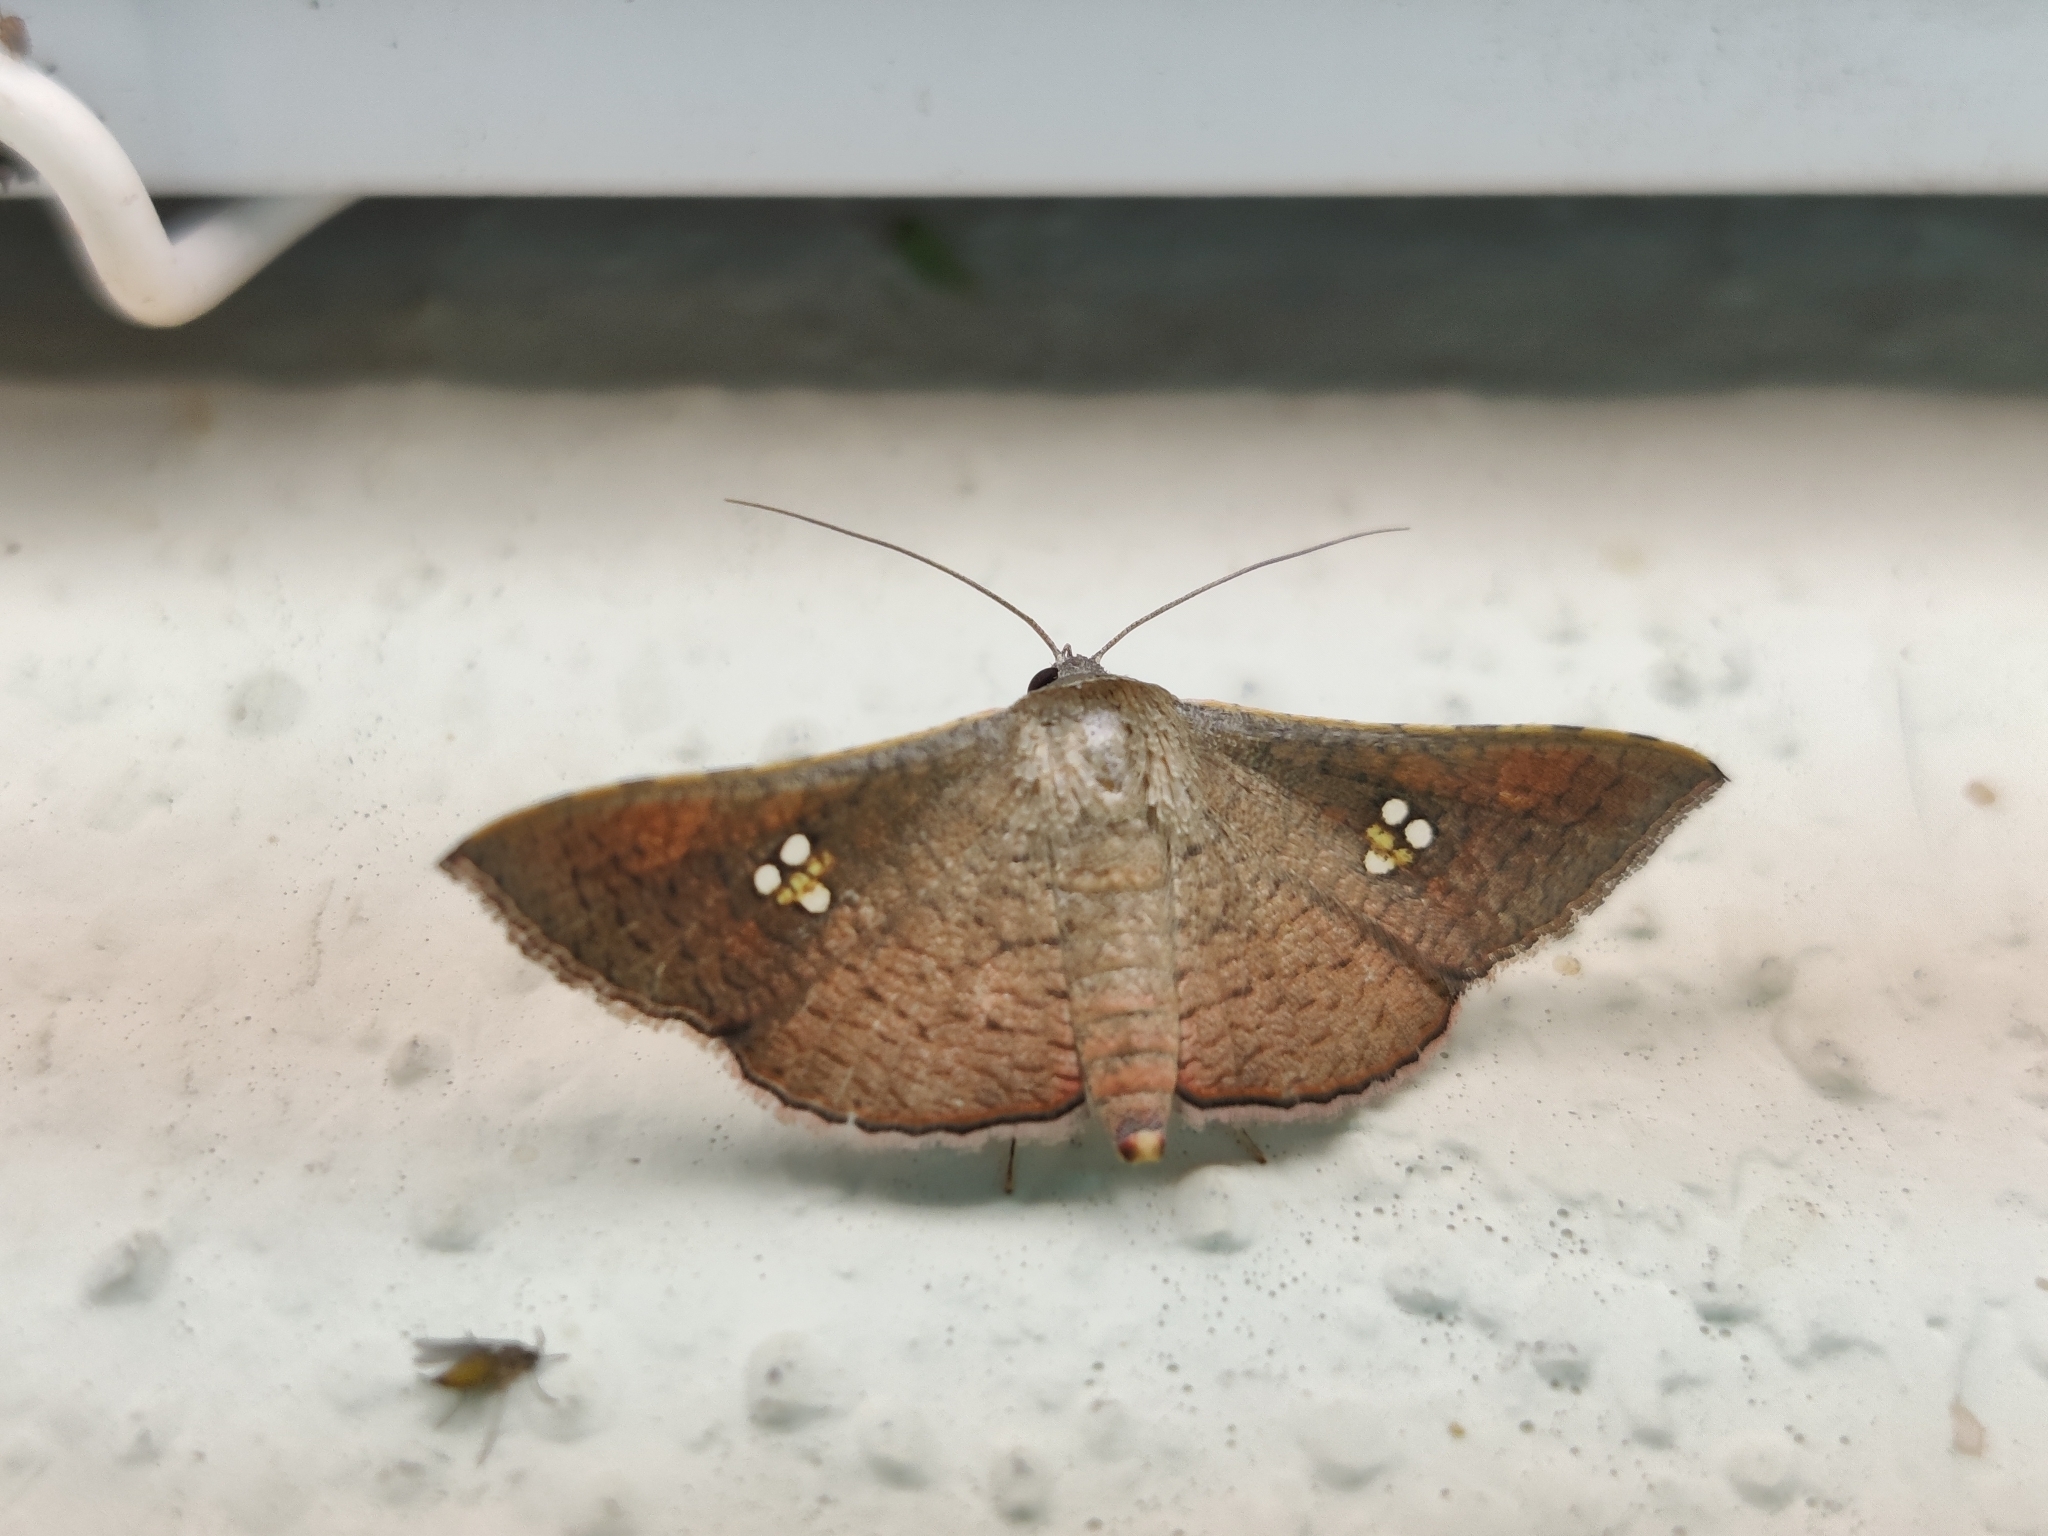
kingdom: Animalia
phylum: Arthropoda
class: Insecta
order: Lepidoptera
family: Thyrididae
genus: Banisia
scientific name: Banisia myrsusalis
